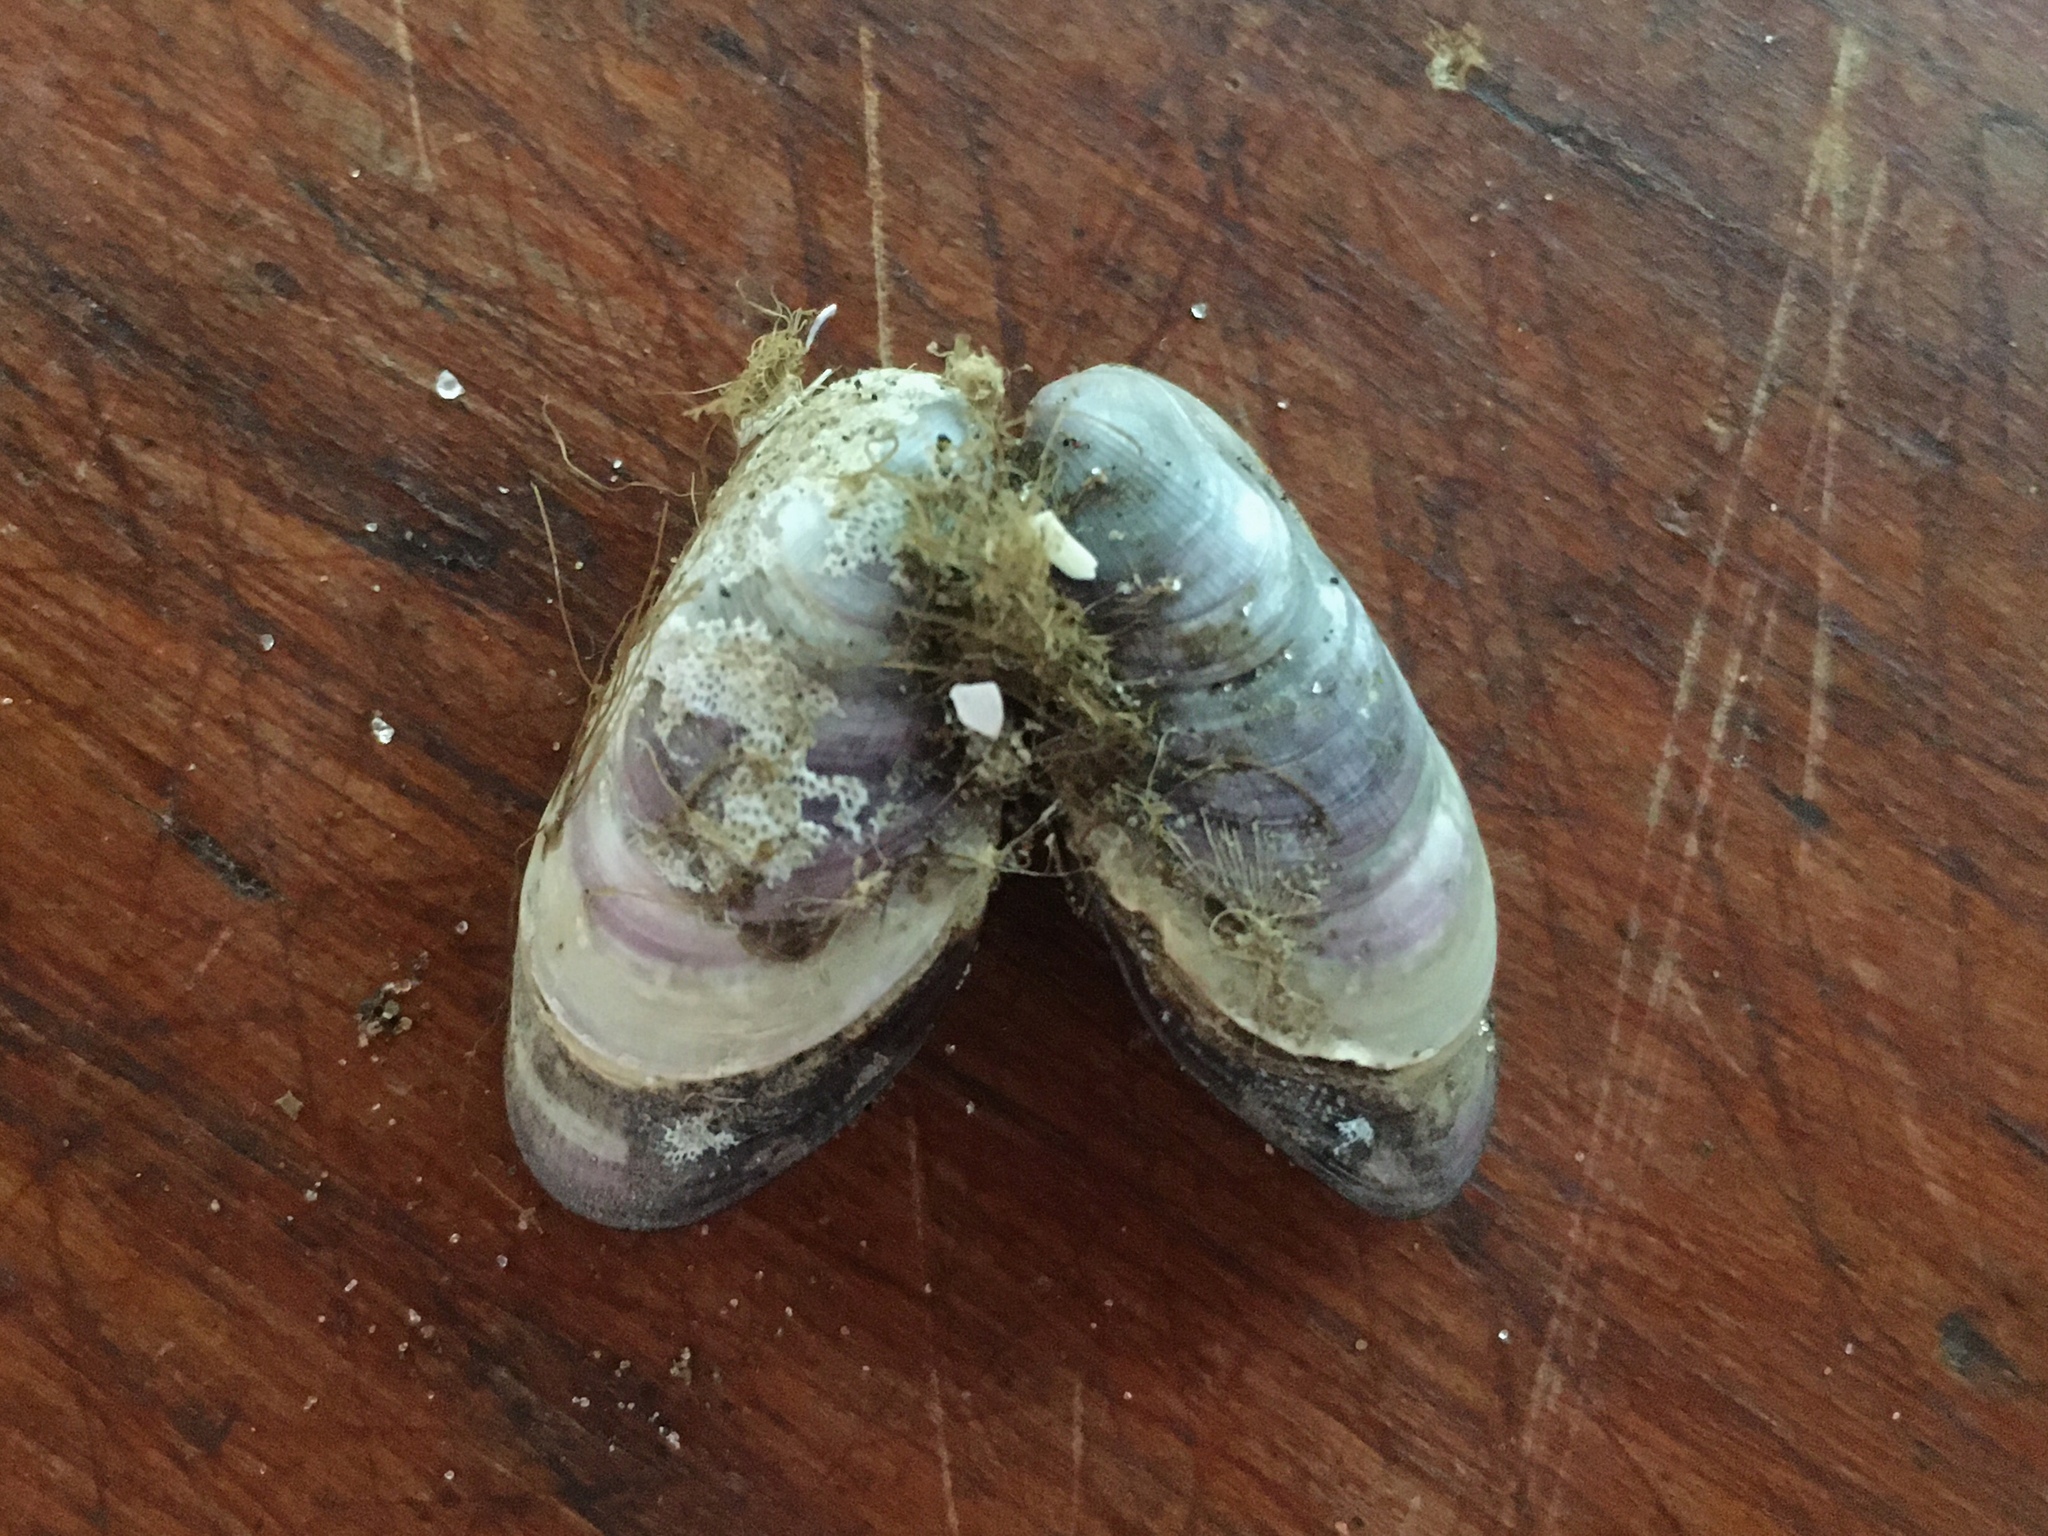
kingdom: Animalia
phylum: Mollusca
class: Bivalvia
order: Mytilida
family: Mytilidae
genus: Brachidontes
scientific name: Brachidontes rodriguezii
